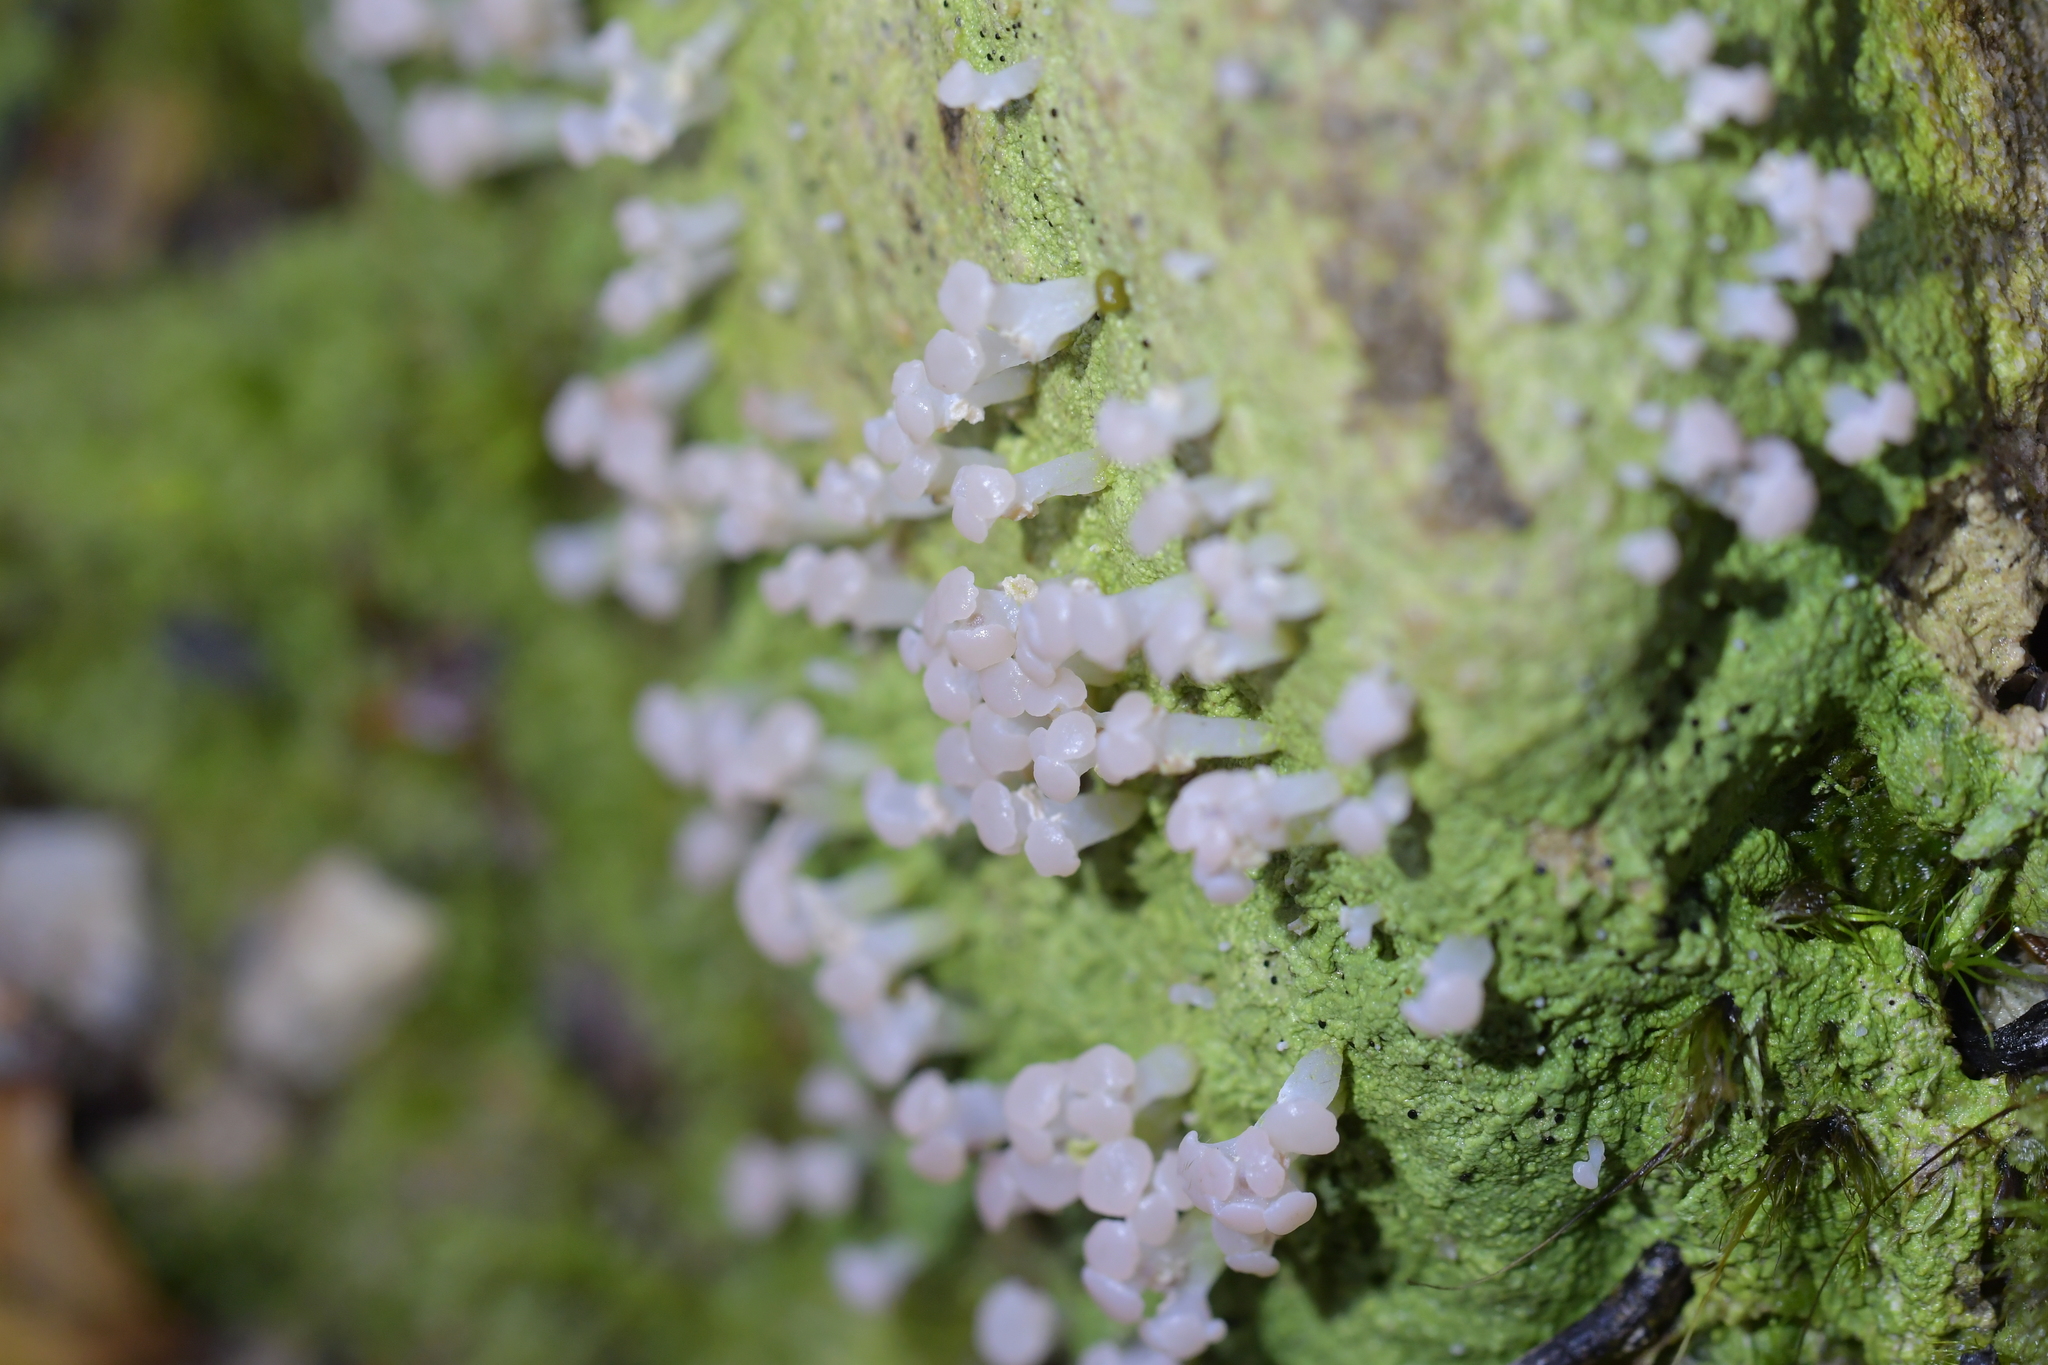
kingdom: Fungi
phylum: Ascomycota
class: Lecanoromycetes
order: Baeomycetales
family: Baeomycetaceae
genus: Baeomyces
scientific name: Baeomyces heteromorphus
